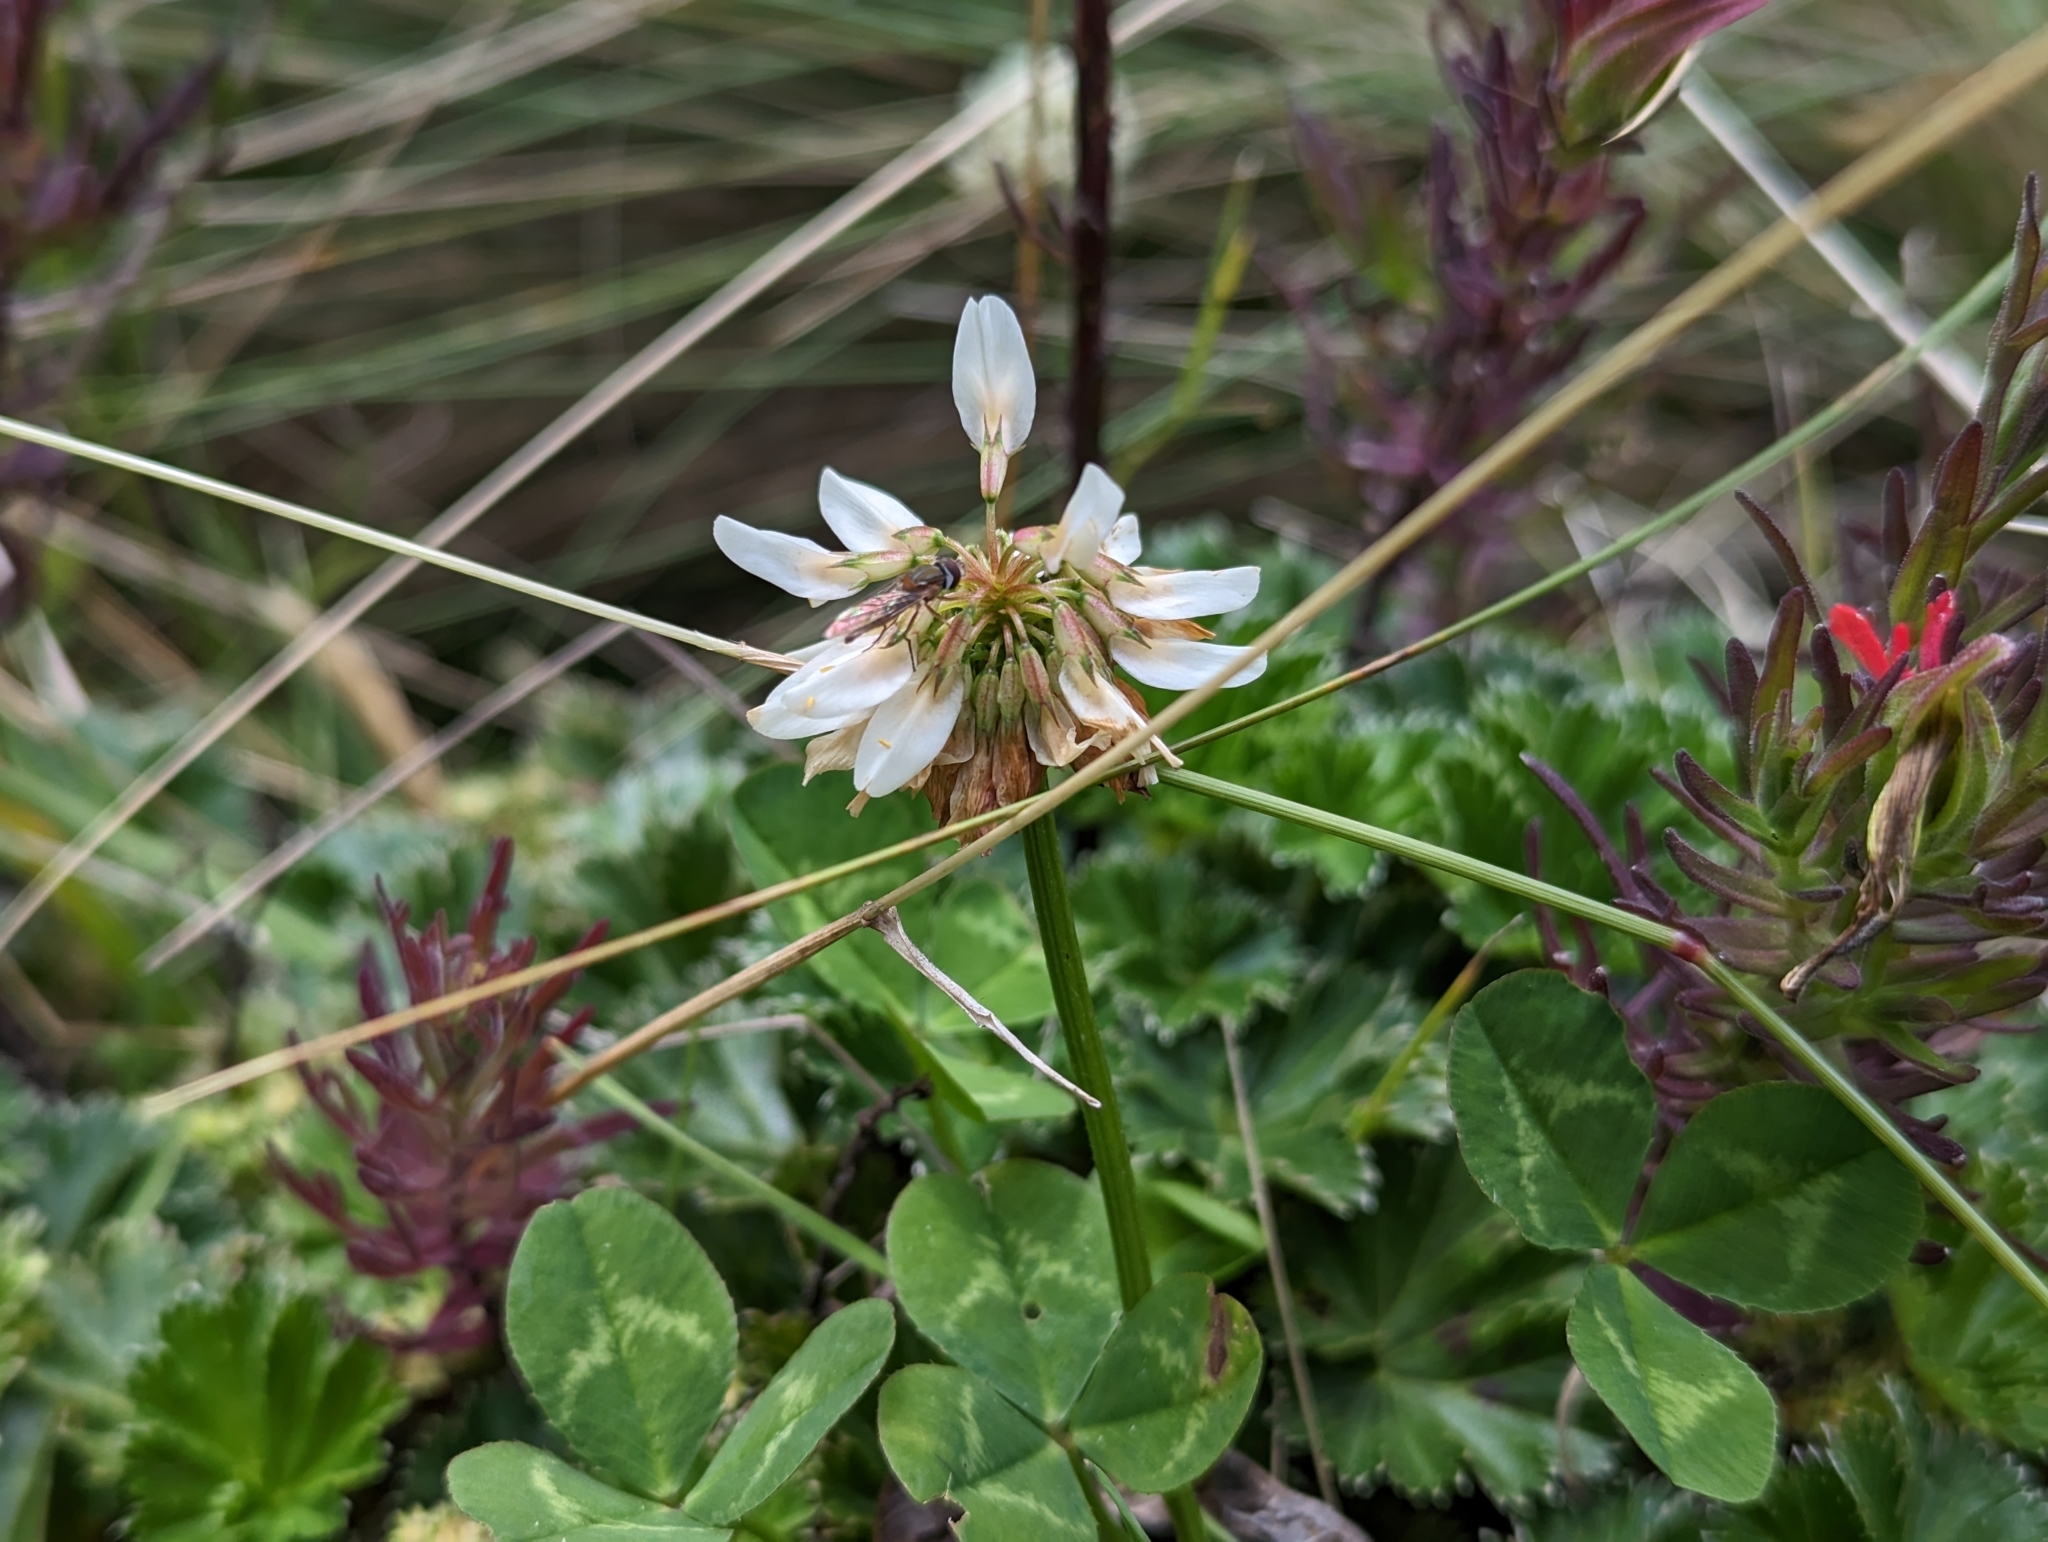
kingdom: Plantae
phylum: Tracheophyta
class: Magnoliopsida
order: Fabales
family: Fabaceae
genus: Trifolium
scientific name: Trifolium repens
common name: White clover
